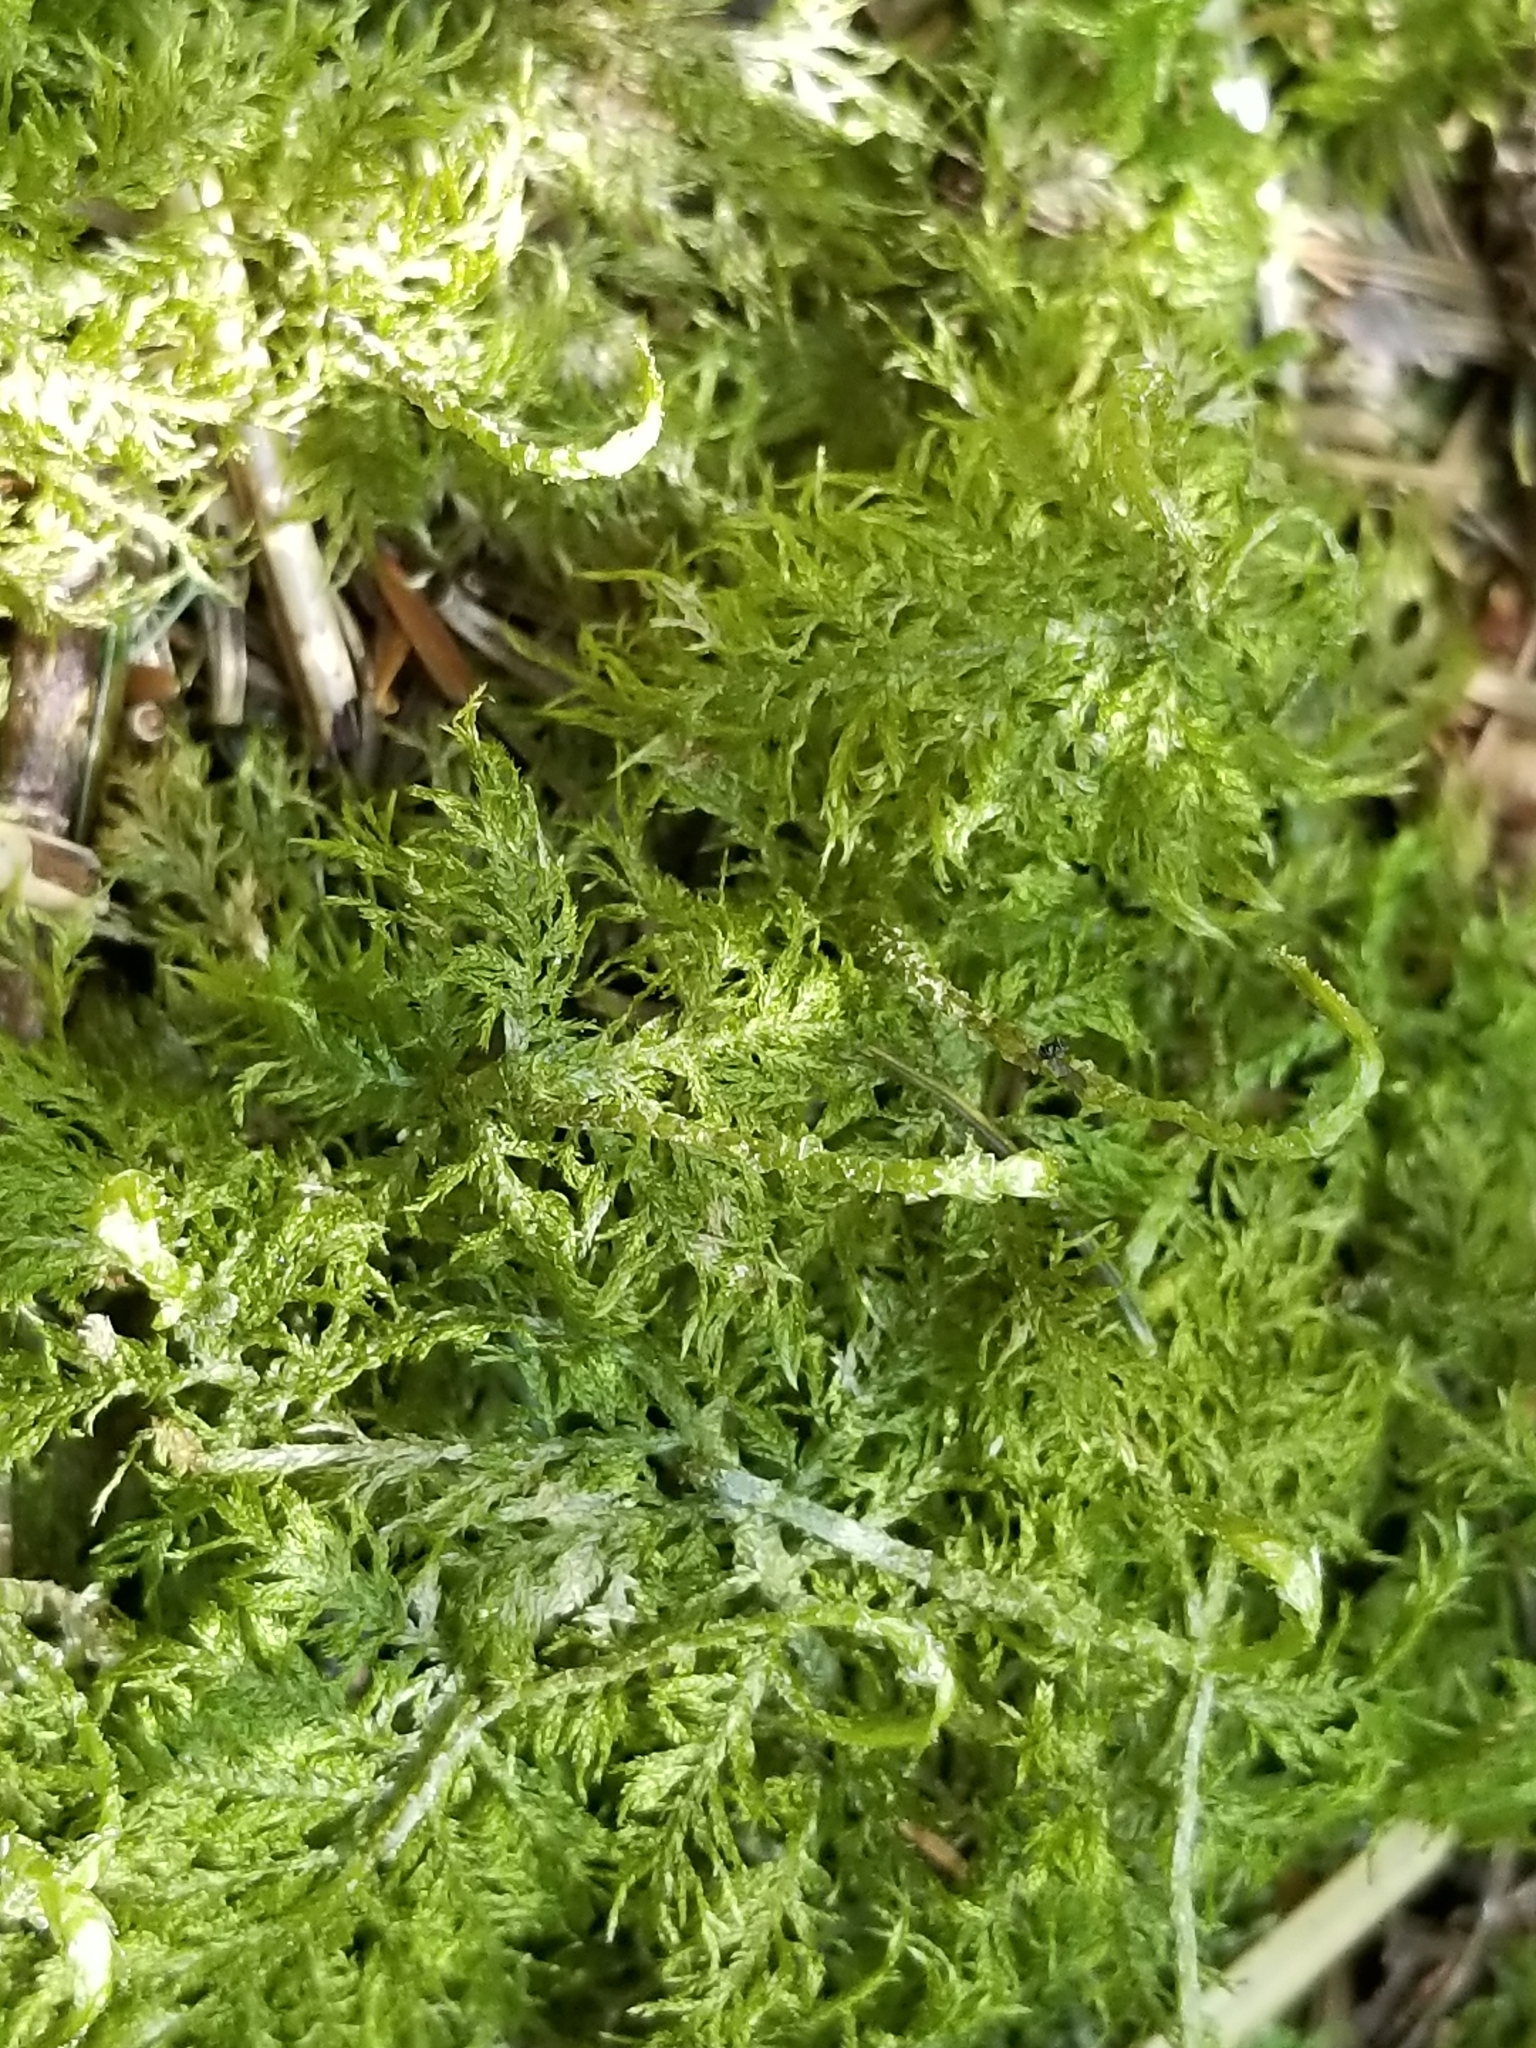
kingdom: Plantae
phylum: Bryophyta
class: Bryopsida
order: Hypnales
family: Hylocomiaceae
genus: Hylocomium
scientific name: Hylocomium splendens
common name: Stairstep moss
